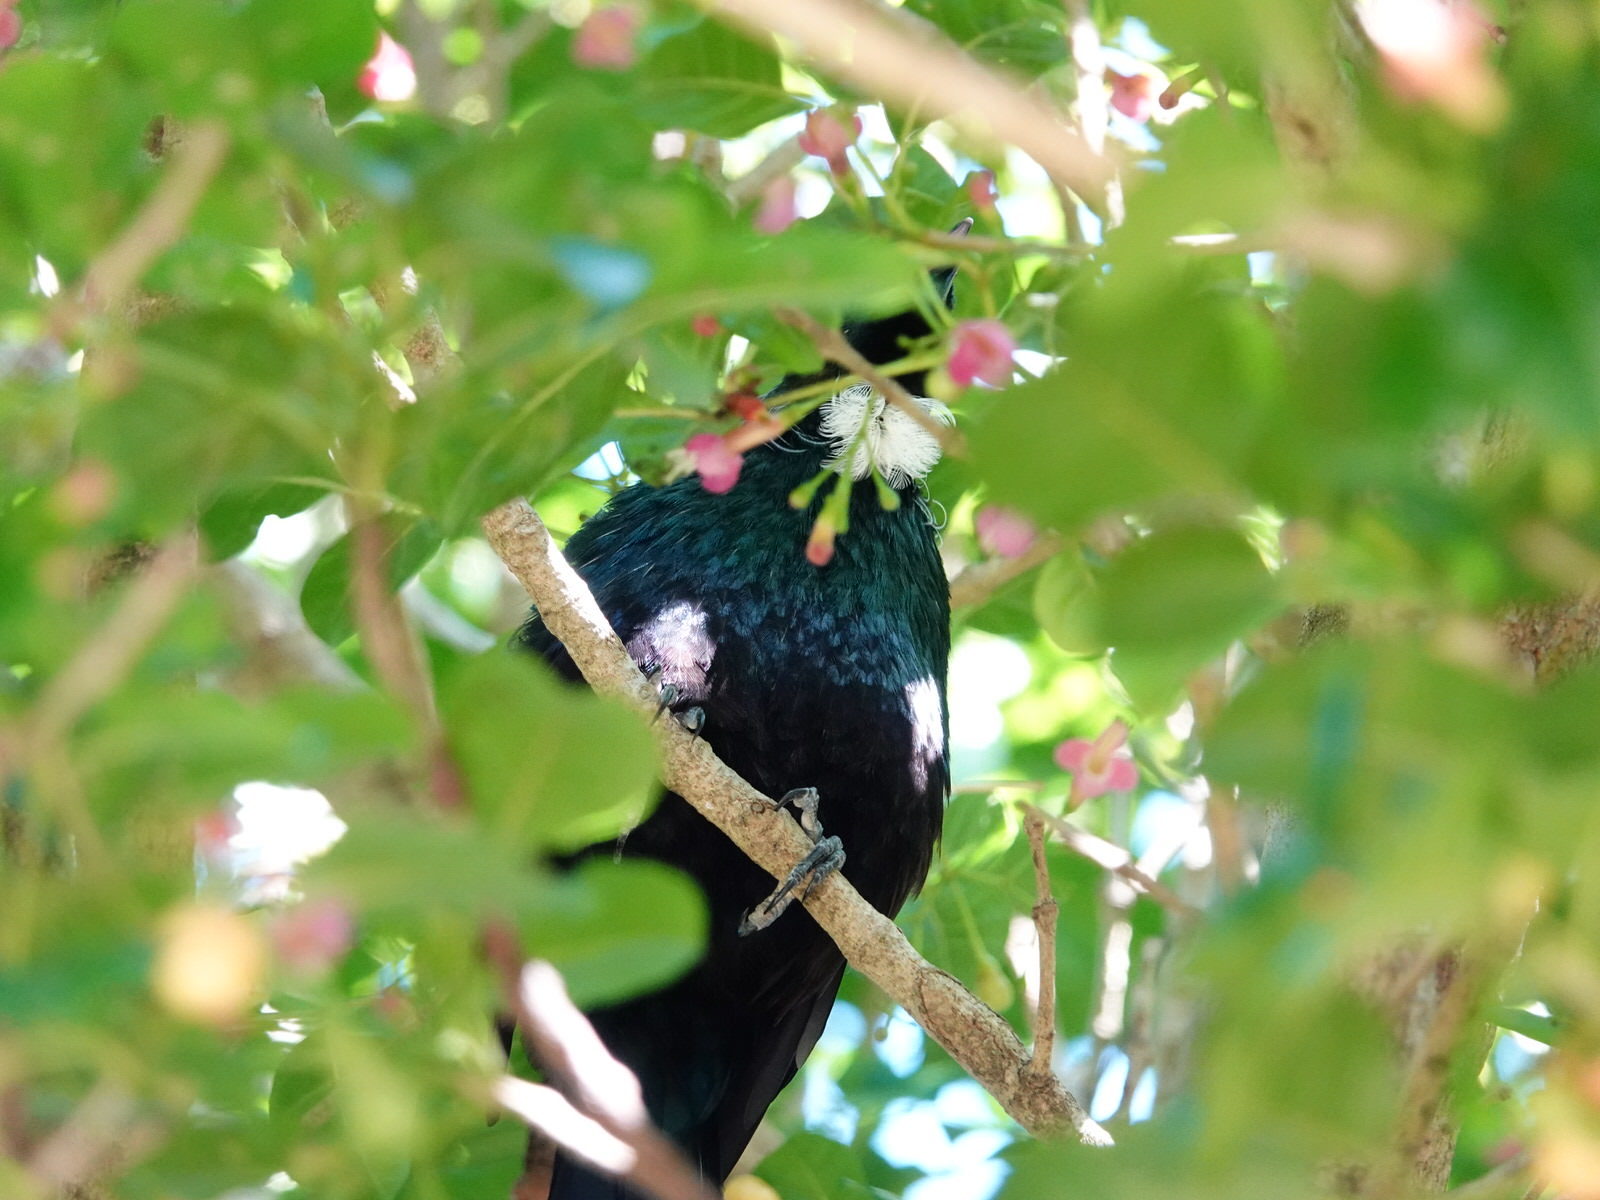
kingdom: Animalia
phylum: Chordata
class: Aves
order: Passeriformes
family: Meliphagidae
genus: Prosthemadera
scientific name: Prosthemadera novaeseelandiae
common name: Tui
